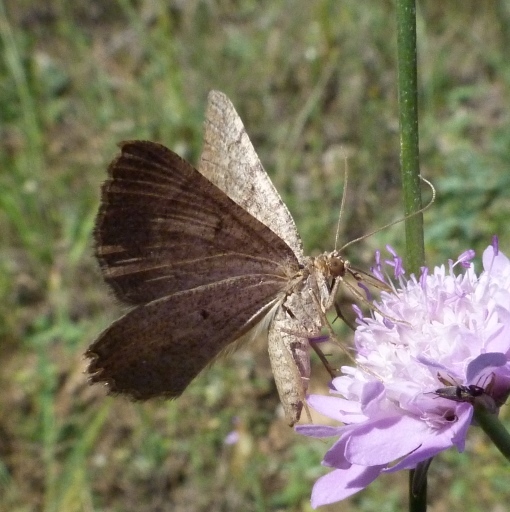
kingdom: Animalia
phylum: Arthropoda
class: Insecta
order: Lepidoptera
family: Geometridae
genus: Ortaliella
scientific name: Ortaliella
